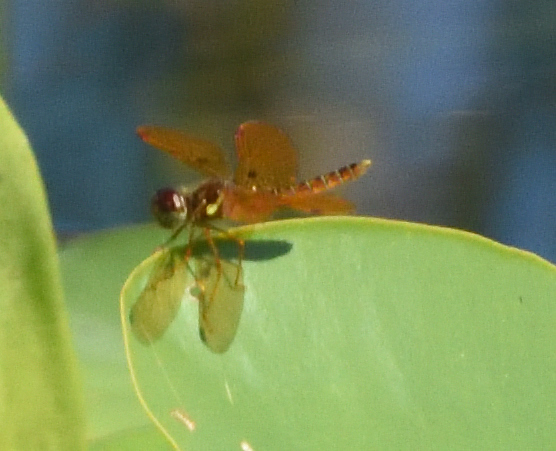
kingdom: Animalia
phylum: Arthropoda
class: Insecta
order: Odonata
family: Libellulidae
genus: Perithemis
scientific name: Perithemis tenera
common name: Eastern amberwing
